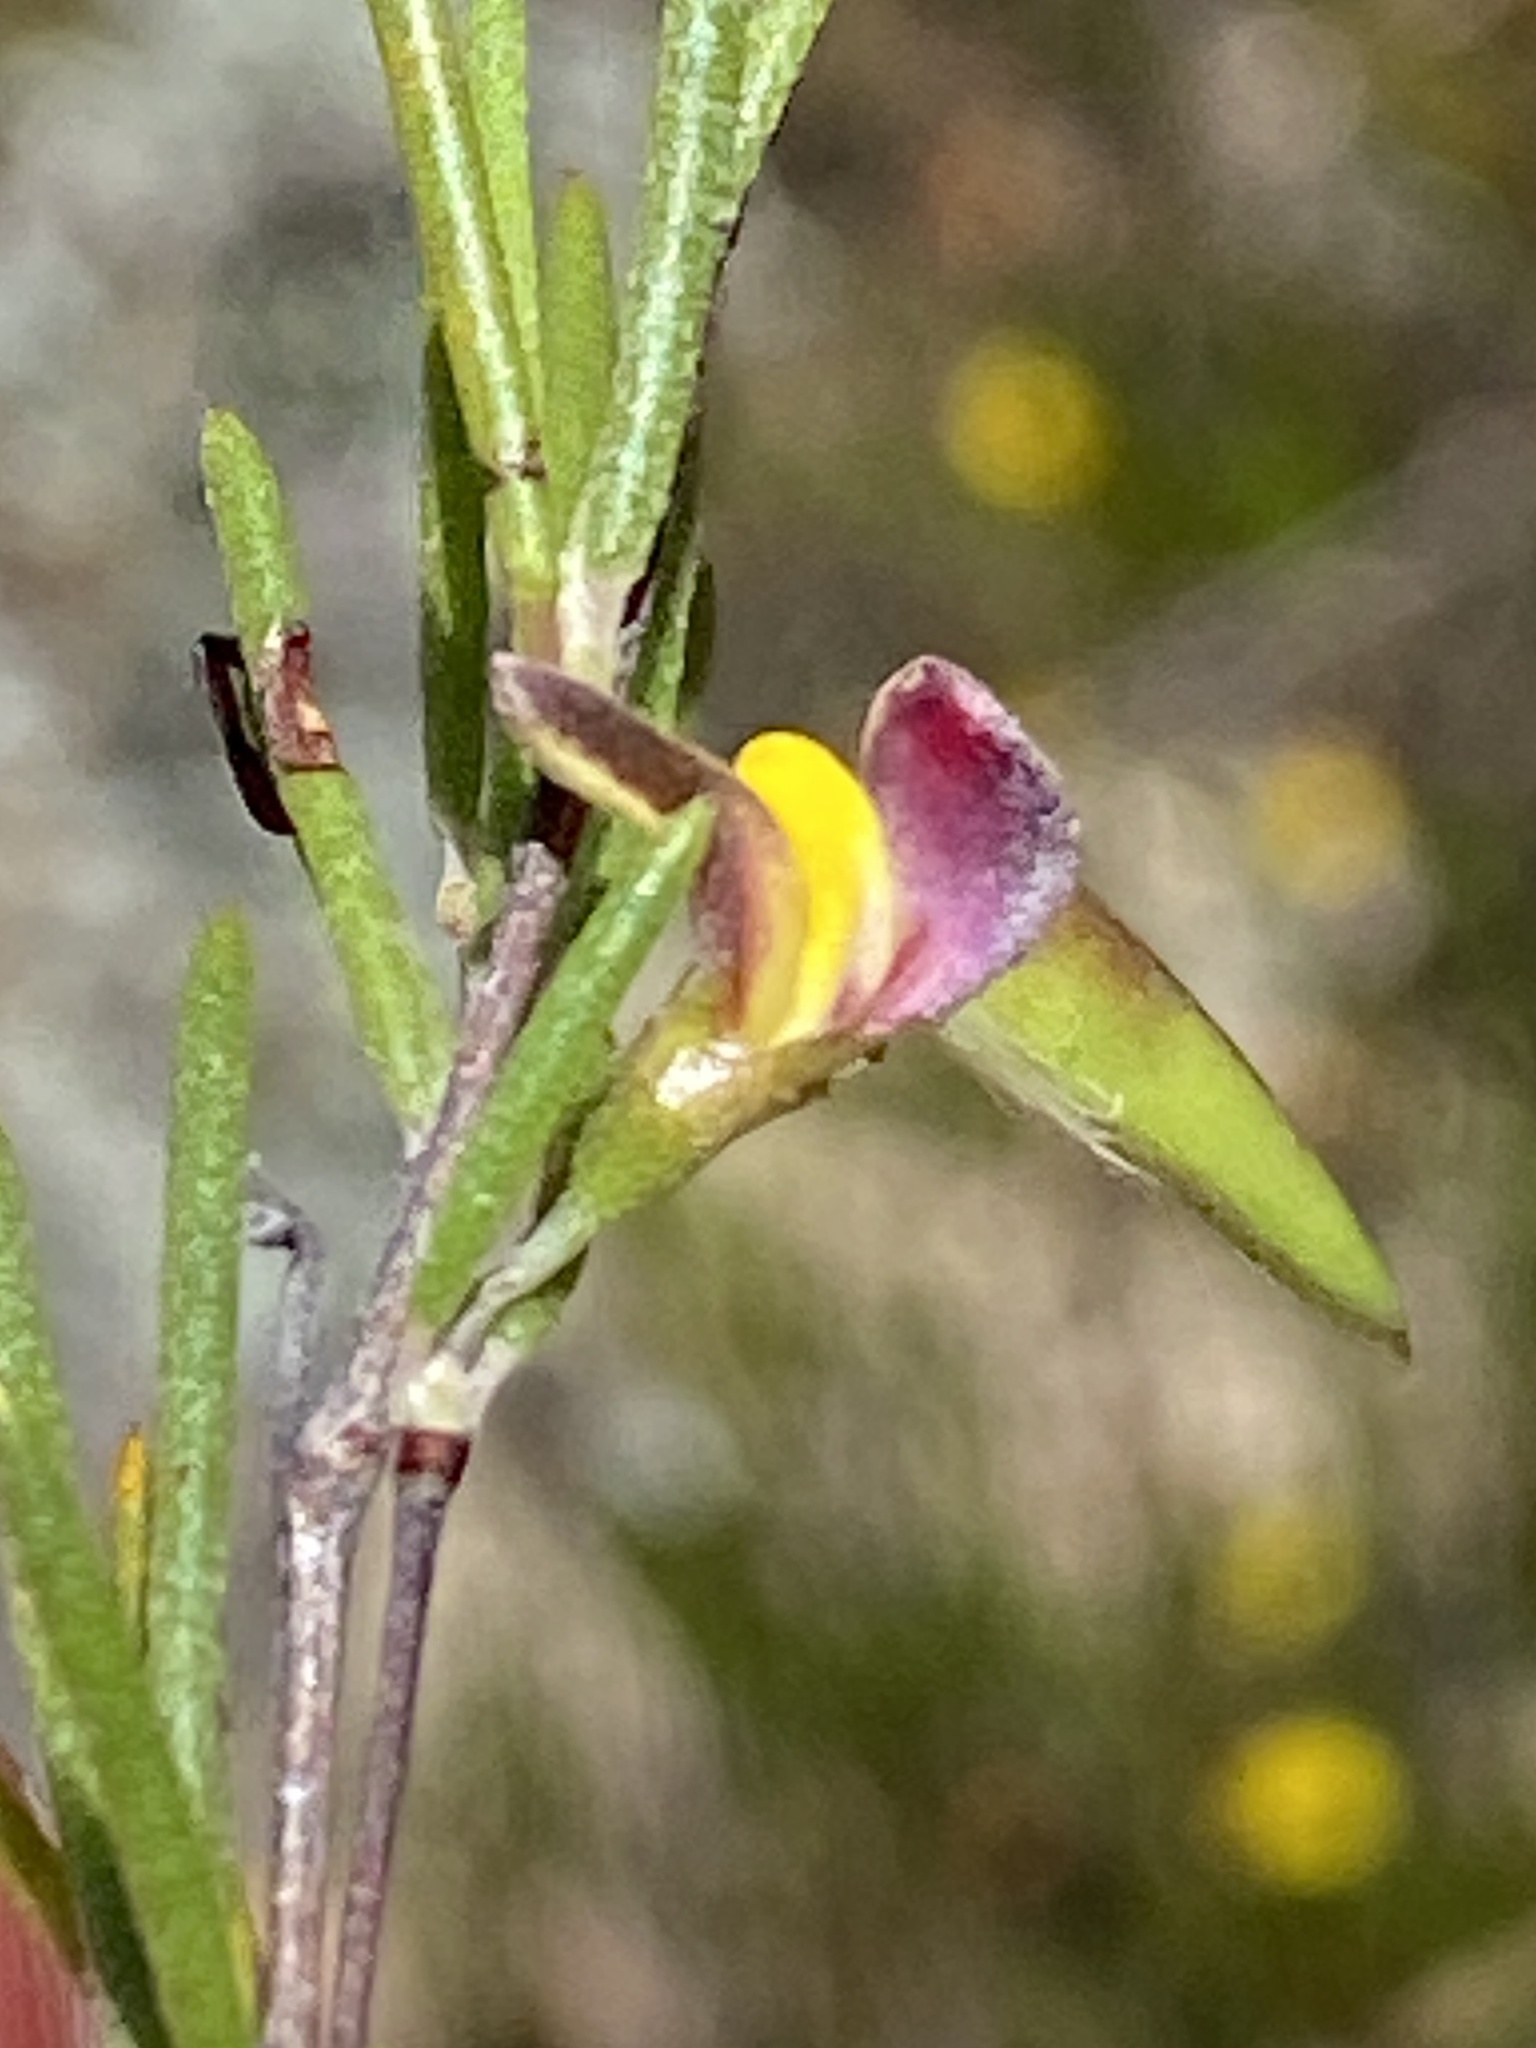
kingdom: Plantae
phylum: Tracheophyta
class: Magnoliopsida
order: Fabales
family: Fabaceae
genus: Aspalathus
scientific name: Aspalathus linearis
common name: Rooibos-tea
